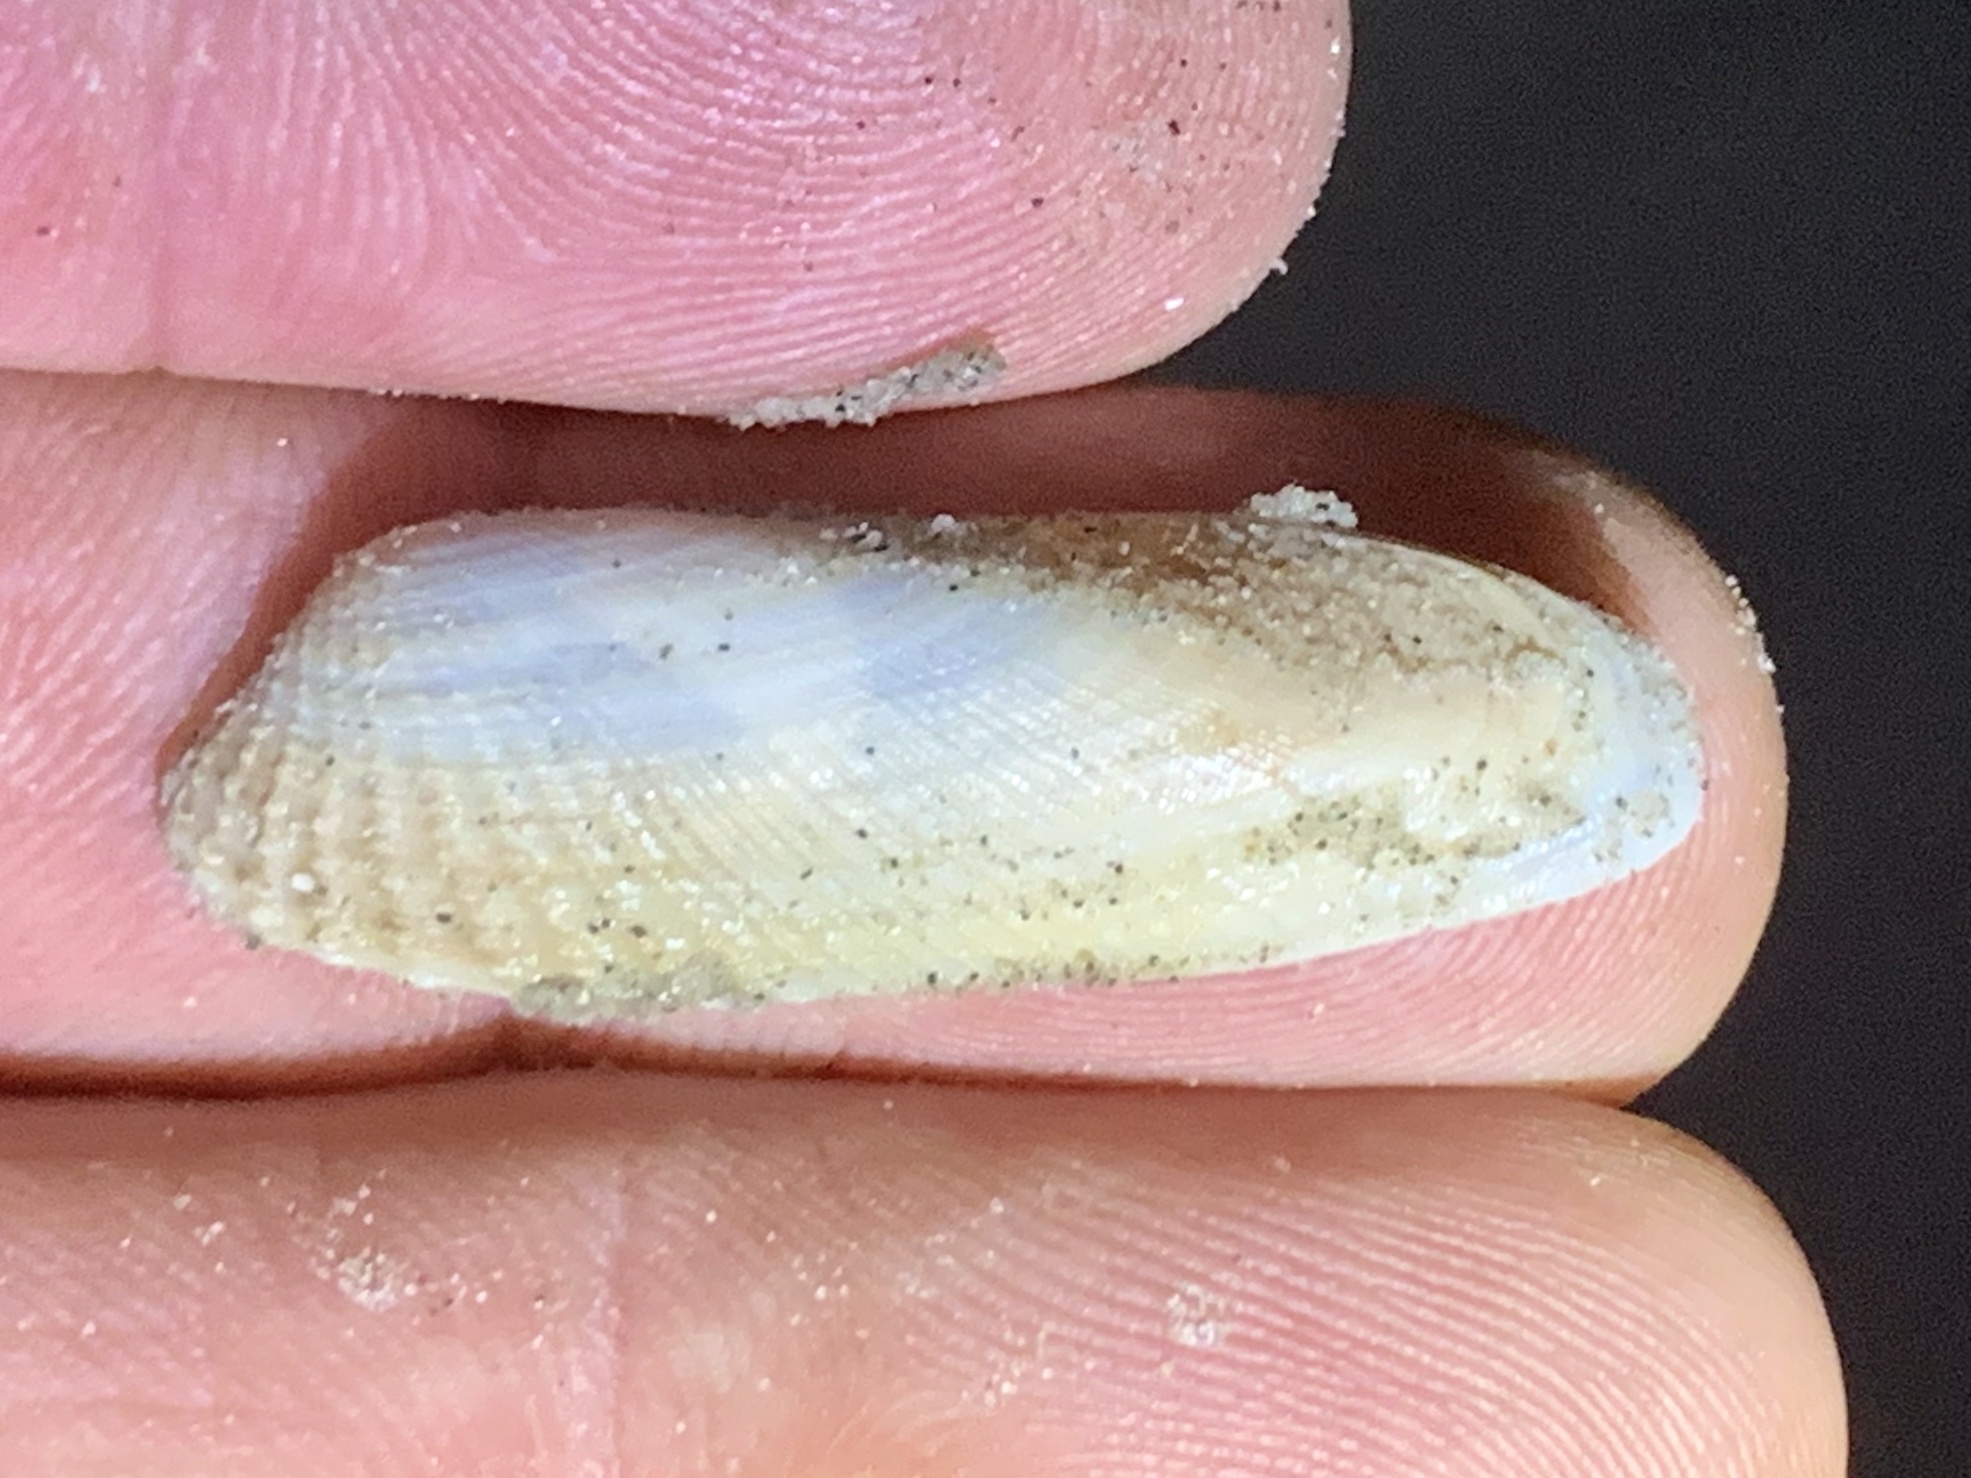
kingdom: Animalia
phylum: Mollusca
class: Bivalvia
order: Venerida
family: Veneridae
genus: Petricolaria
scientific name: Petricolaria pholadiformis
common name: American piddock
